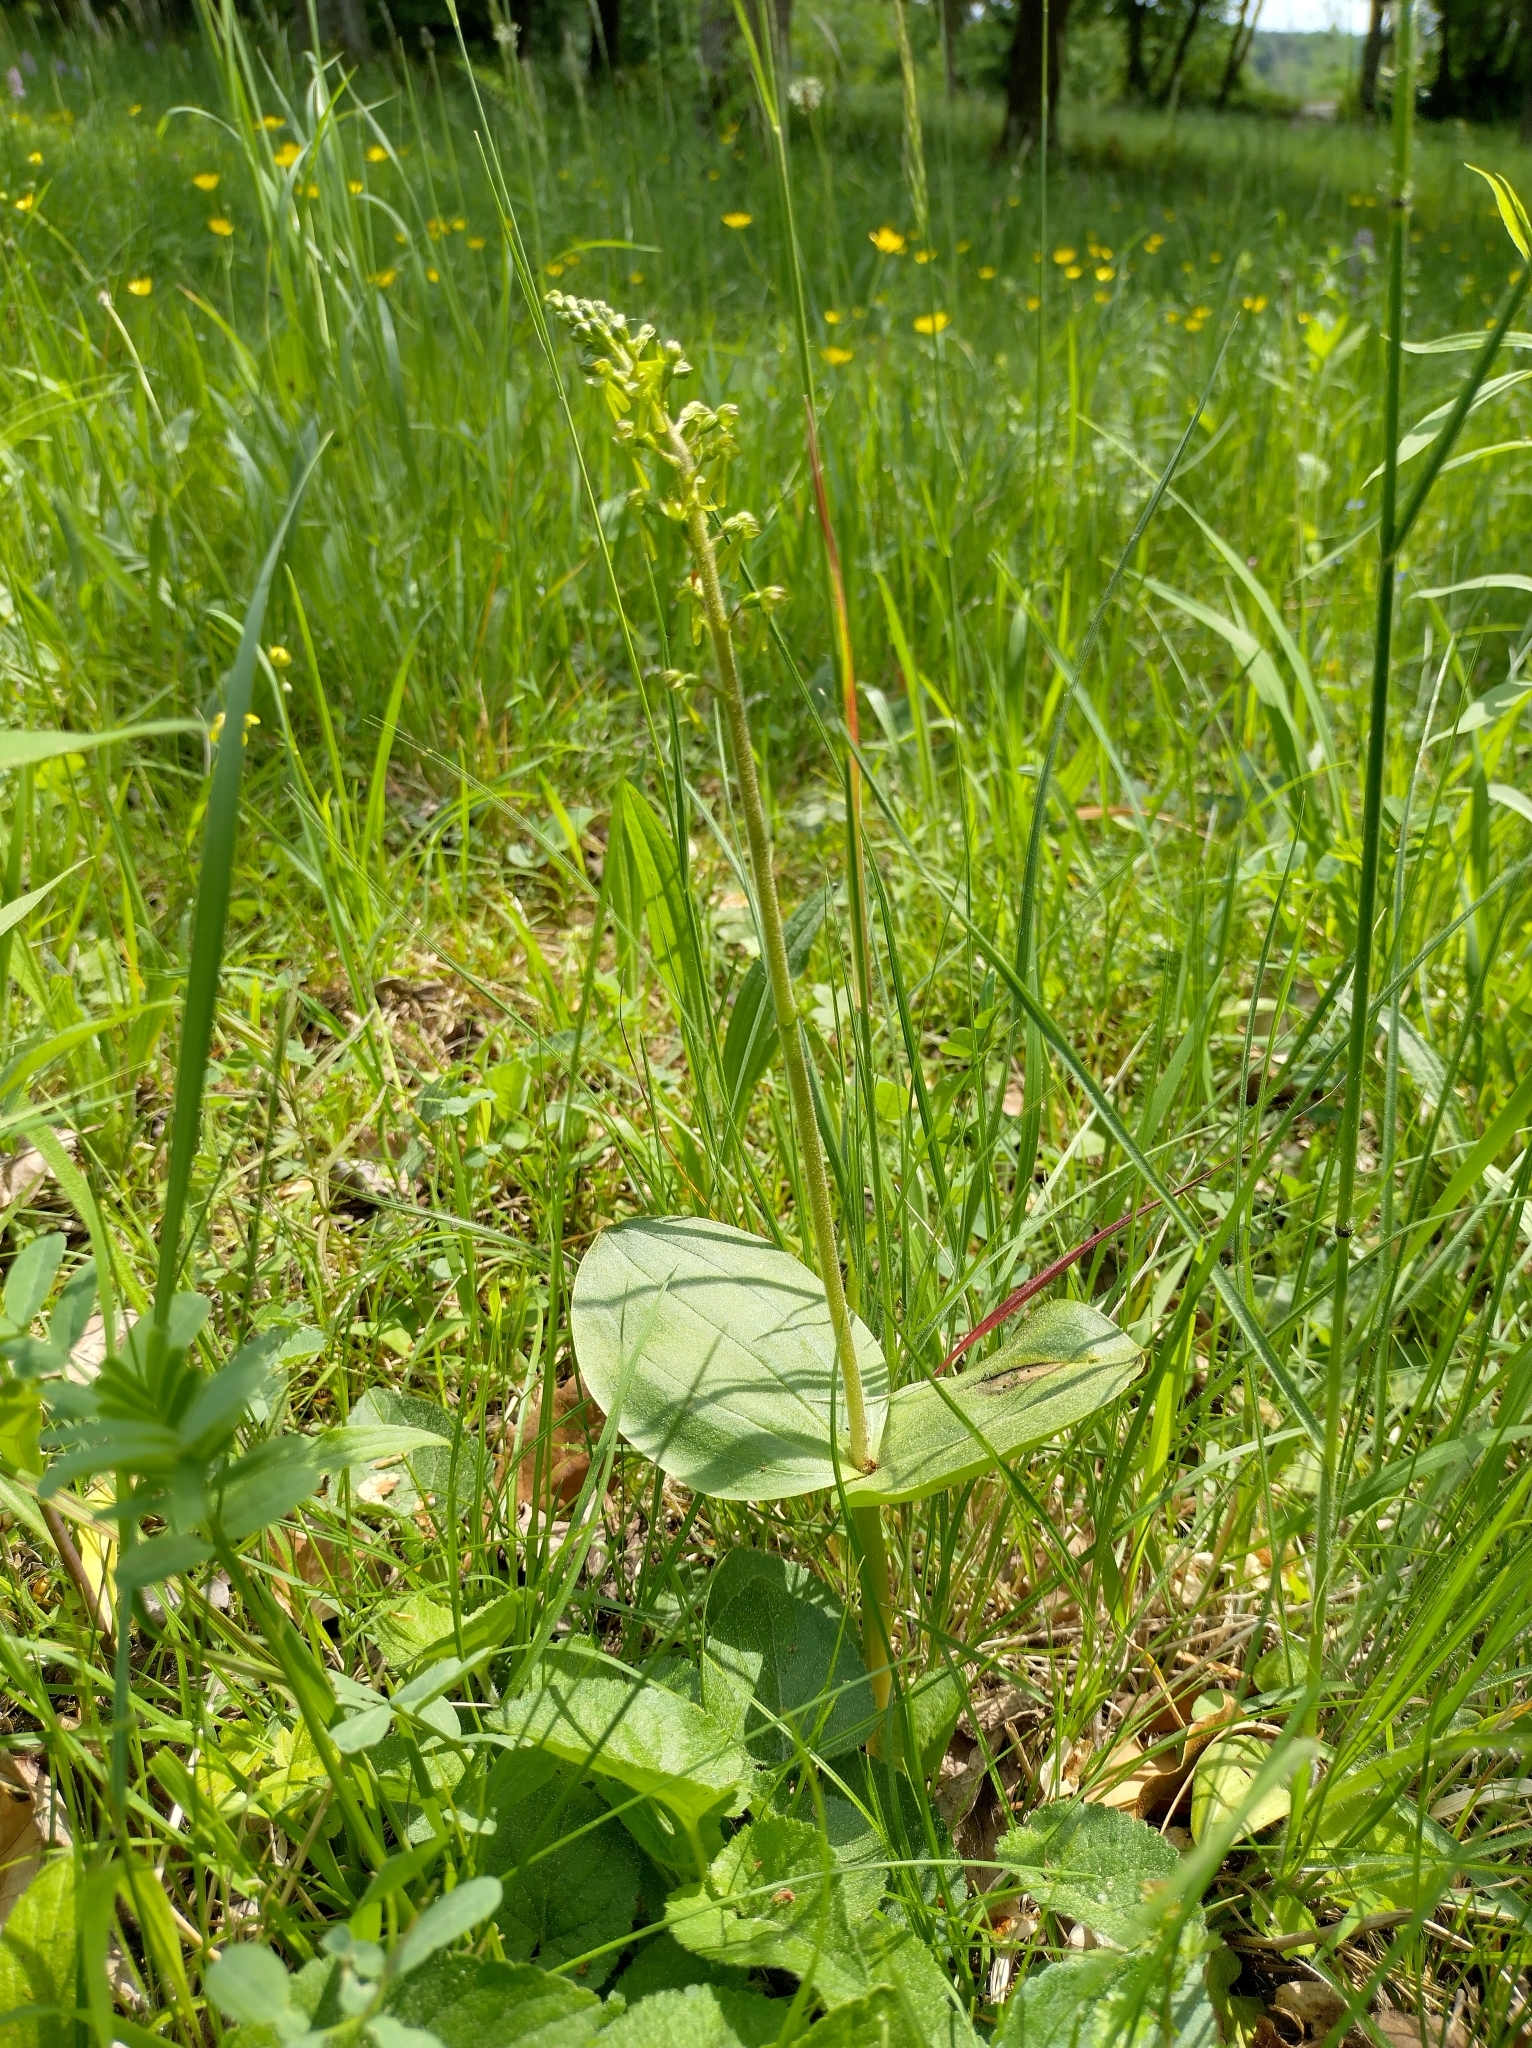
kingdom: Plantae
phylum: Tracheophyta
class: Liliopsida
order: Asparagales
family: Orchidaceae
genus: Neottia
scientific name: Neottia ovata
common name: Common twayblade
